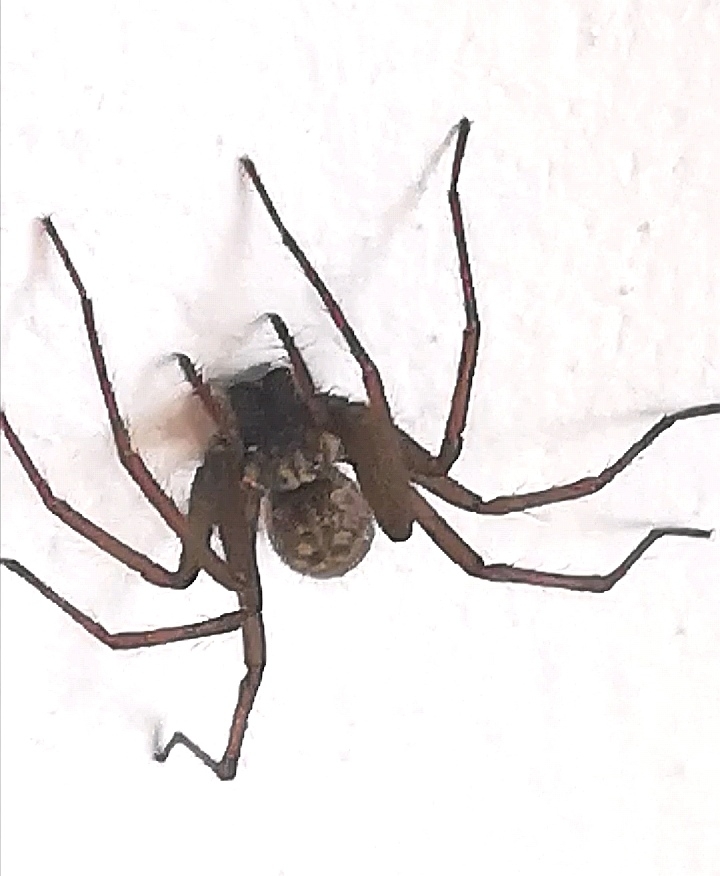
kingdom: Animalia
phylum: Arthropoda
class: Arachnida
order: Araneae
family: Agelenidae
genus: Eratigena
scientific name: Eratigena atrica
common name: Giant house spider
